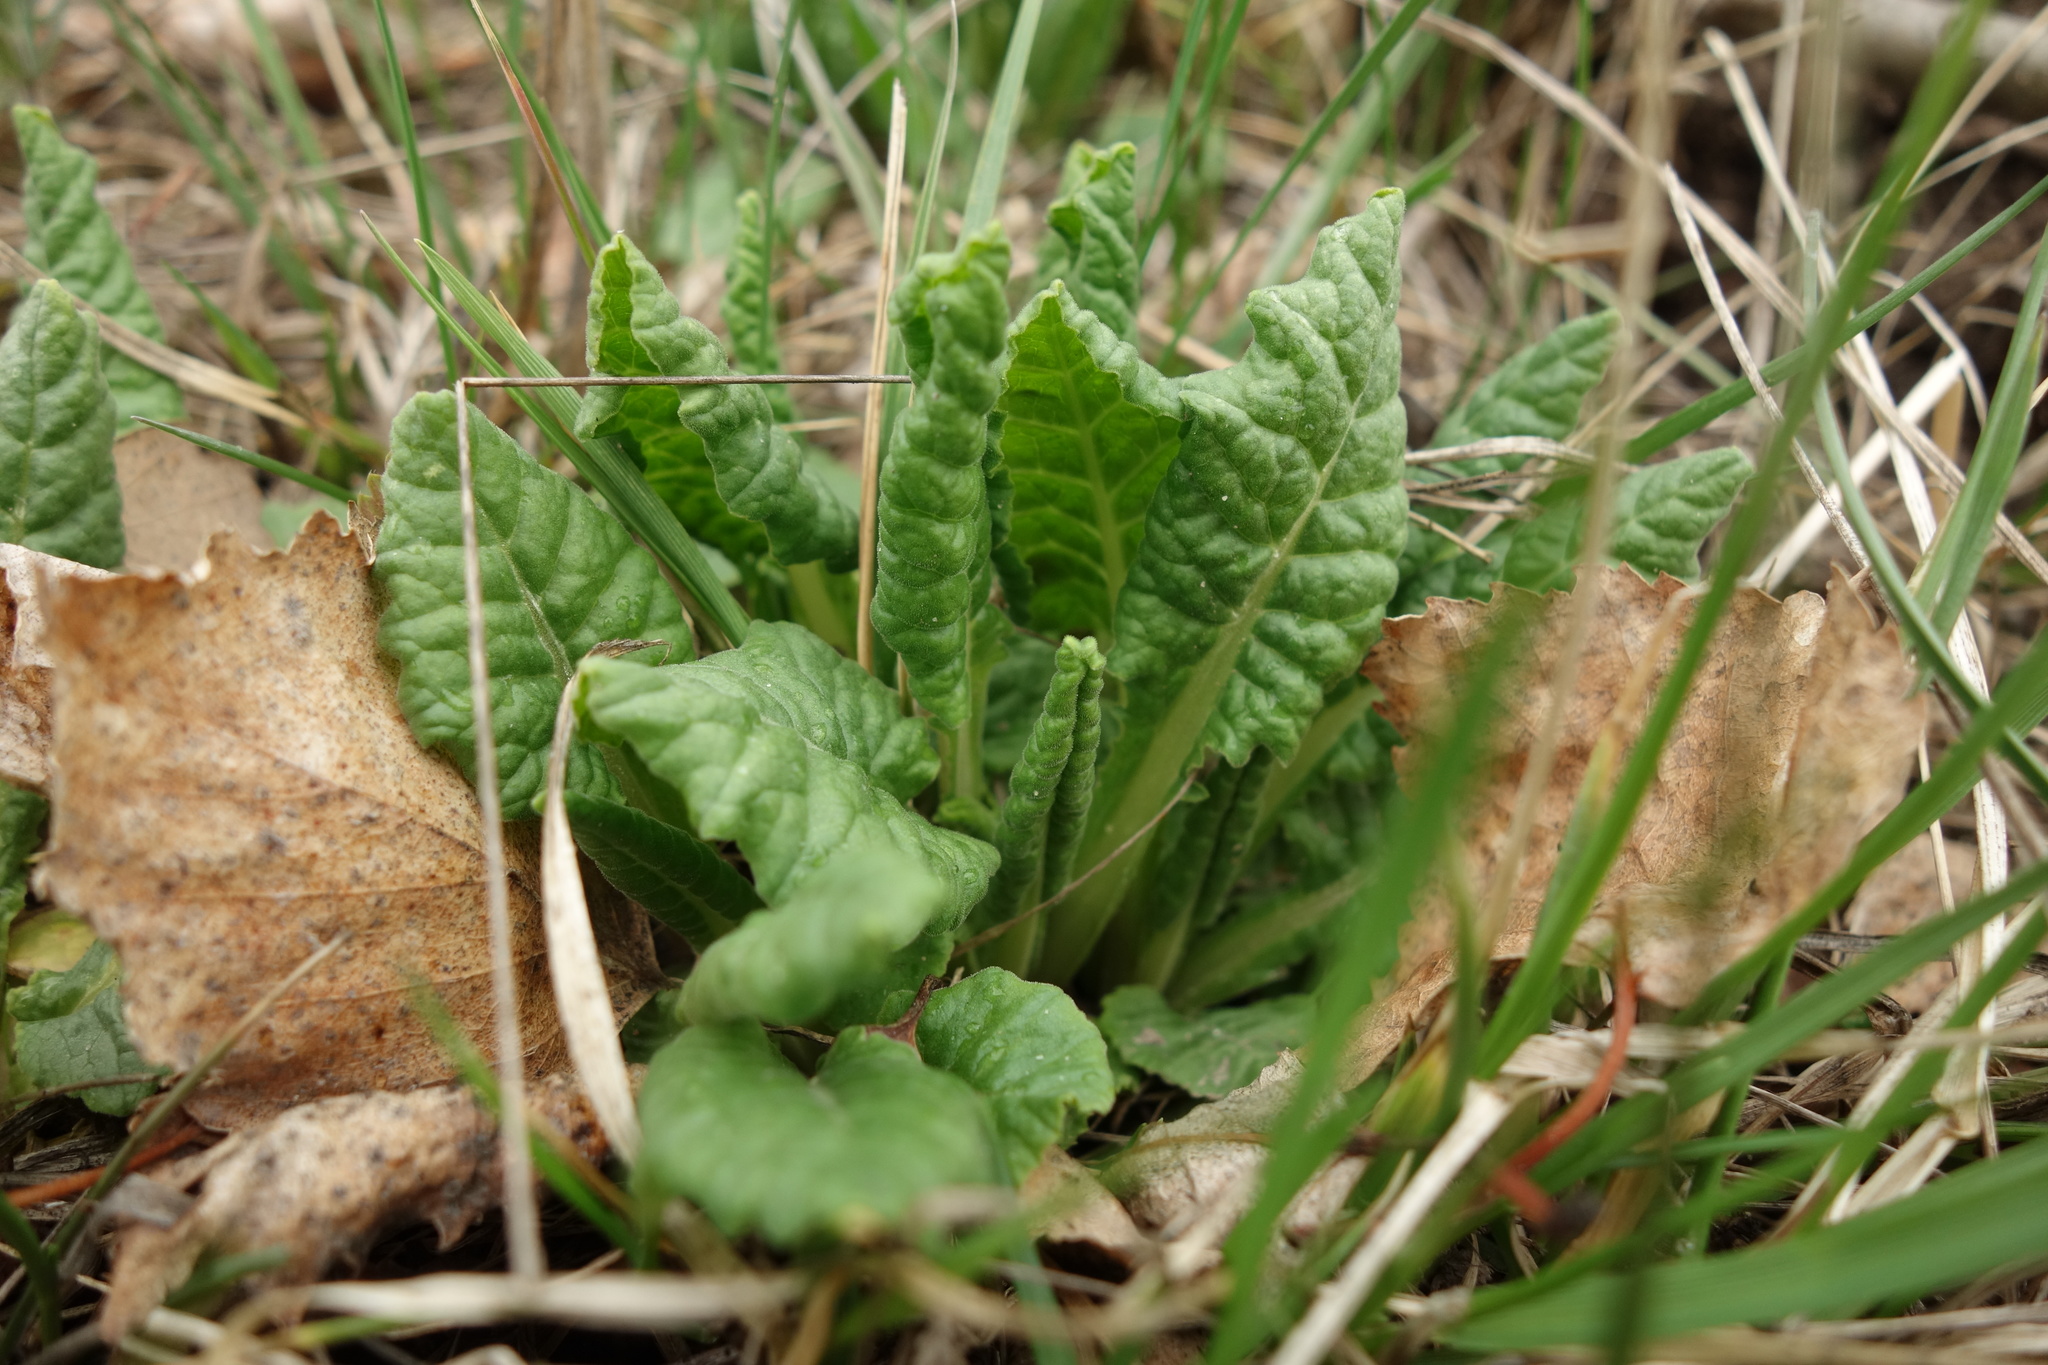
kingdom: Plantae
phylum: Tracheophyta
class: Magnoliopsida
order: Ericales
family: Primulaceae
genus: Primula
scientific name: Primula veris
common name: Cowslip
